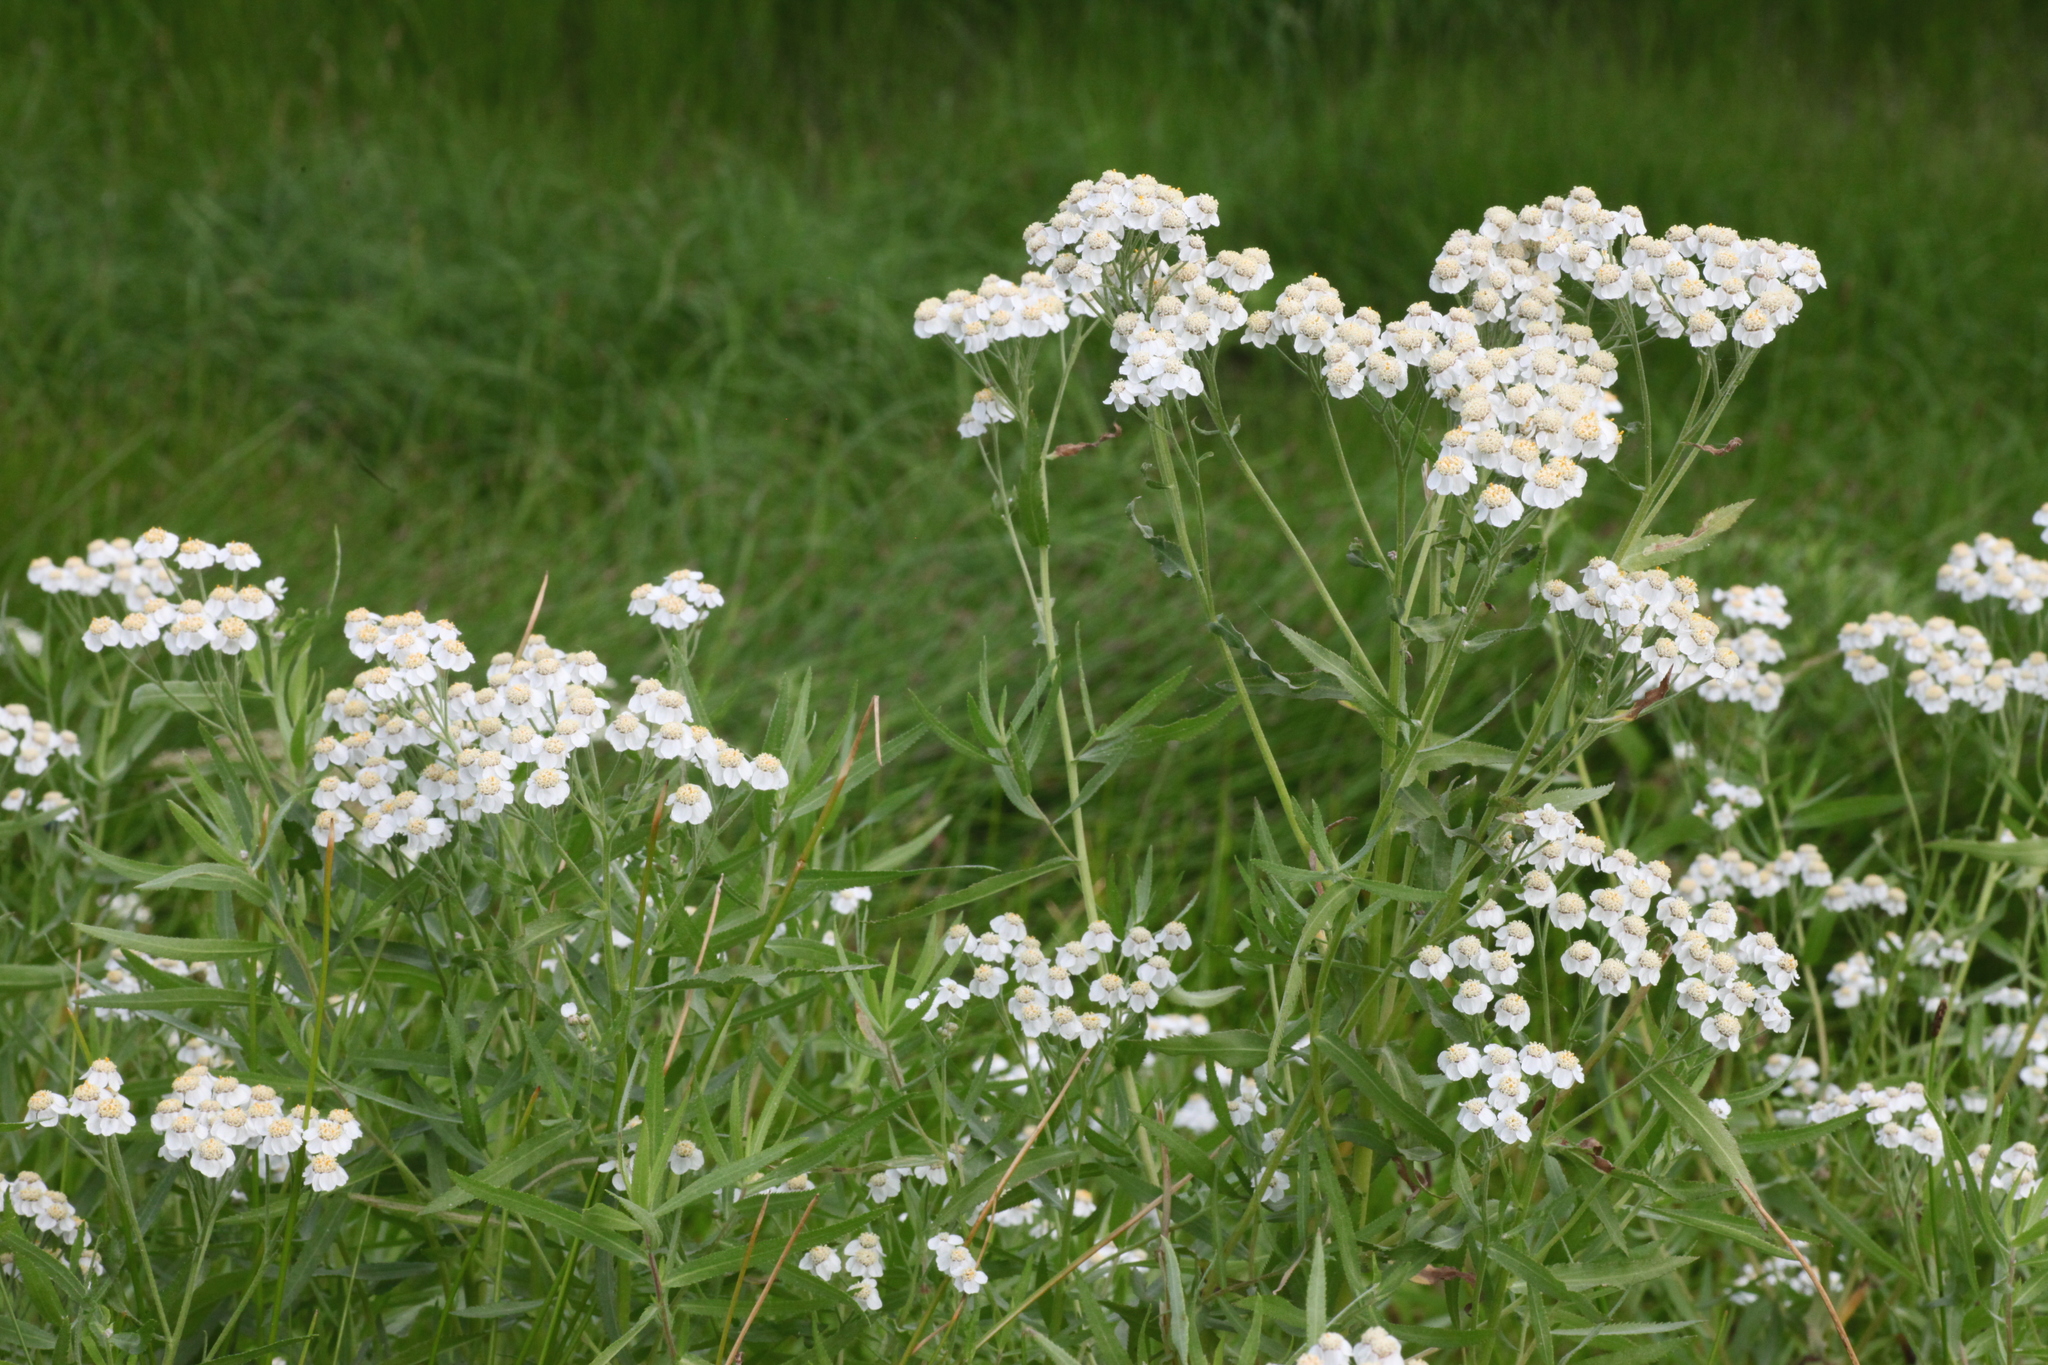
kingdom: Plantae
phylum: Tracheophyta
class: Magnoliopsida
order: Asterales
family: Asteraceae
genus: Achillea
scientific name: Achillea salicifolia
